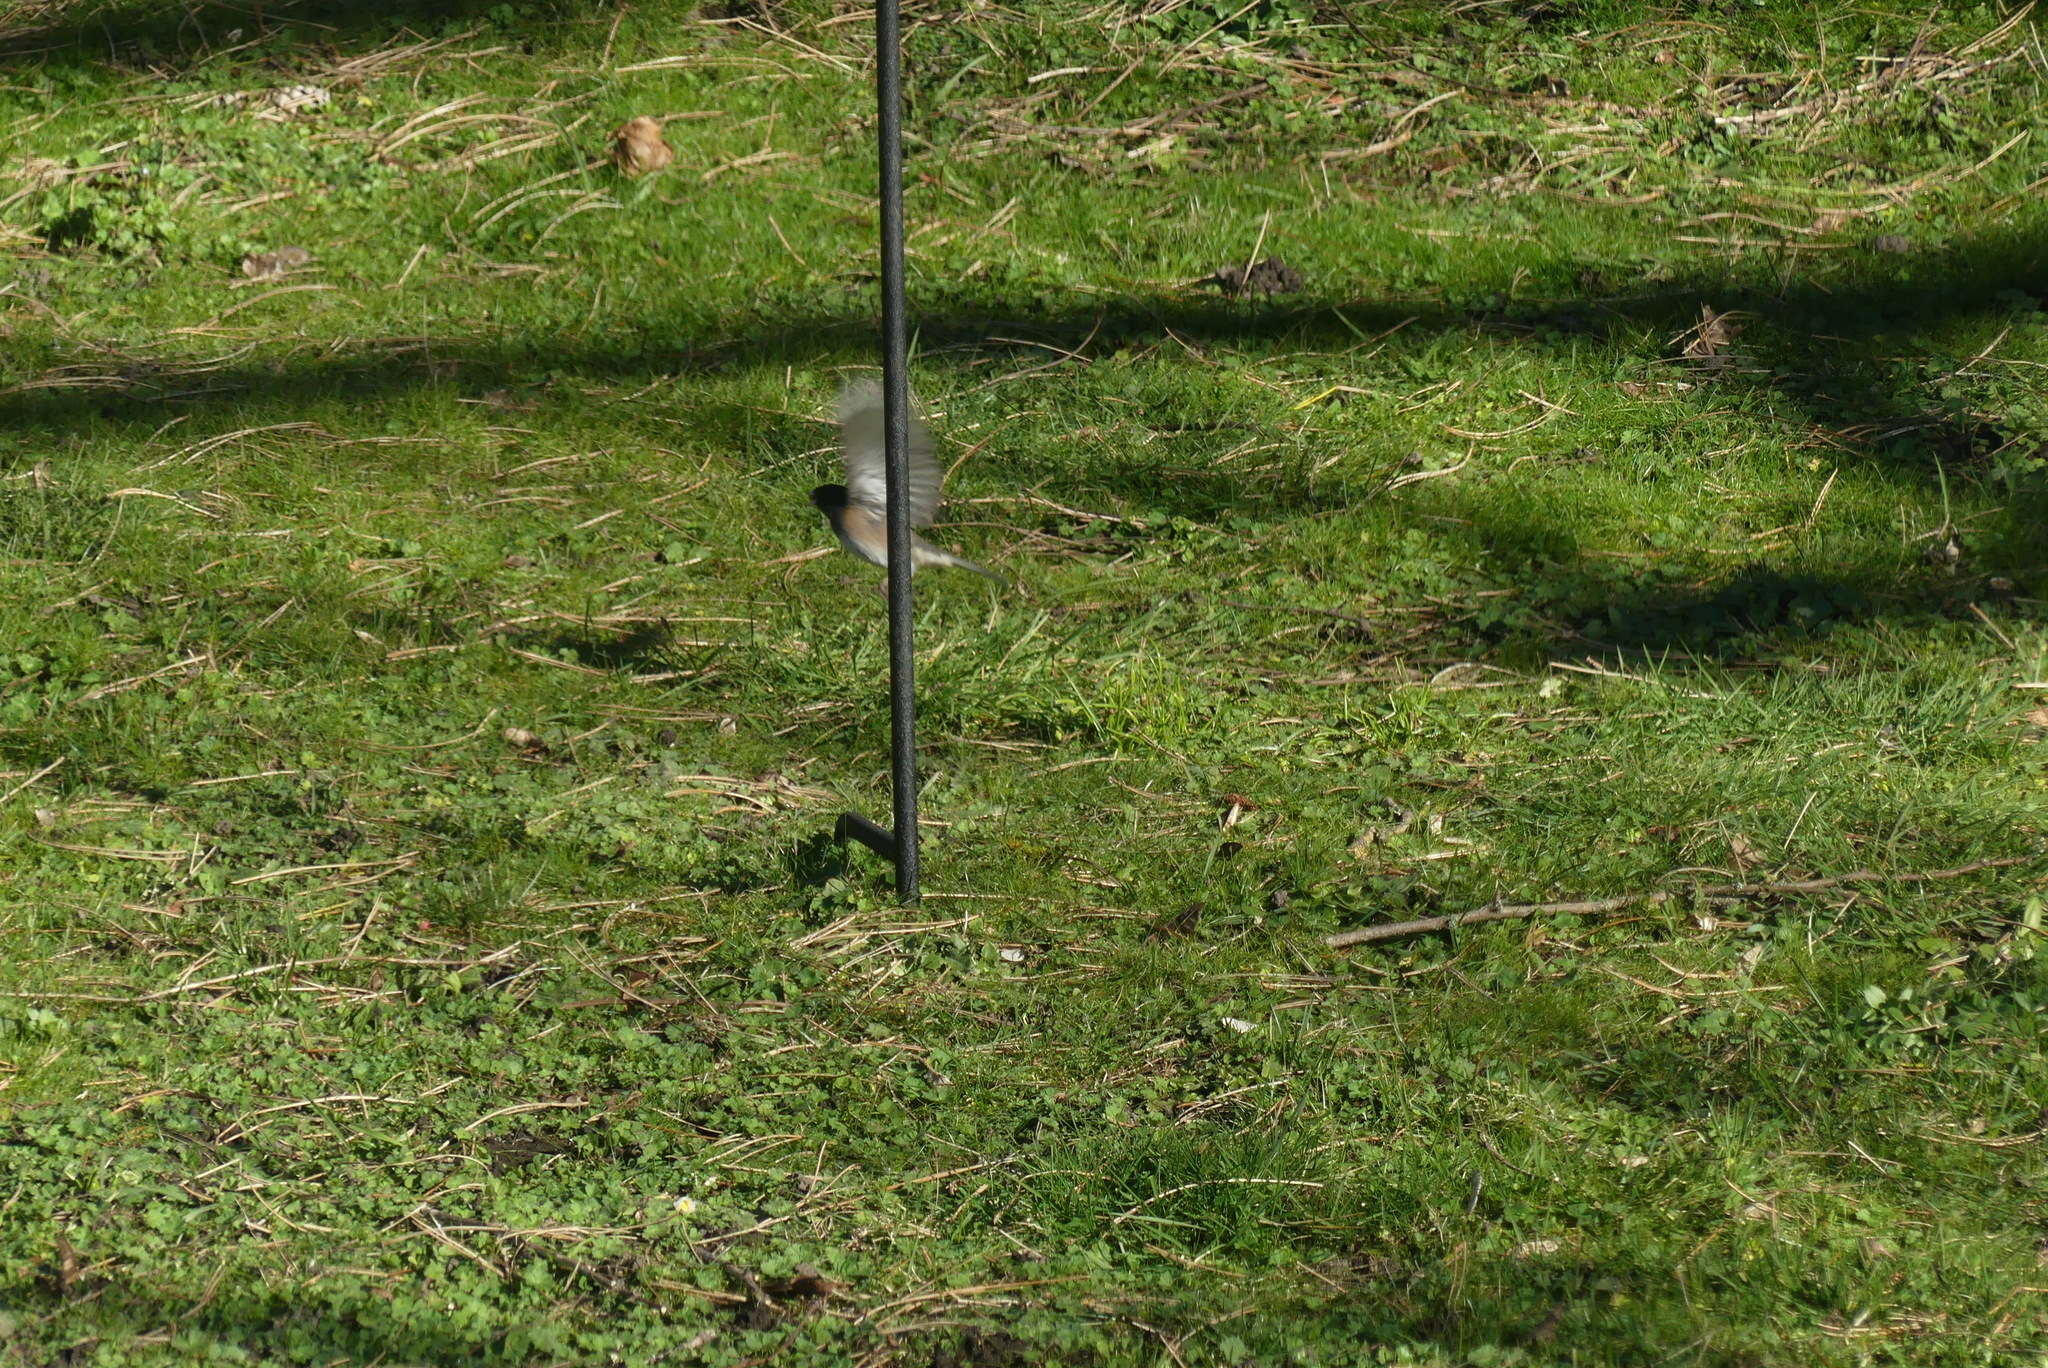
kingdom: Animalia
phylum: Chordata
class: Aves
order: Passeriformes
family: Passerellidae
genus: Junco
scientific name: Junco hyemalis
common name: Dark-eyed junco
